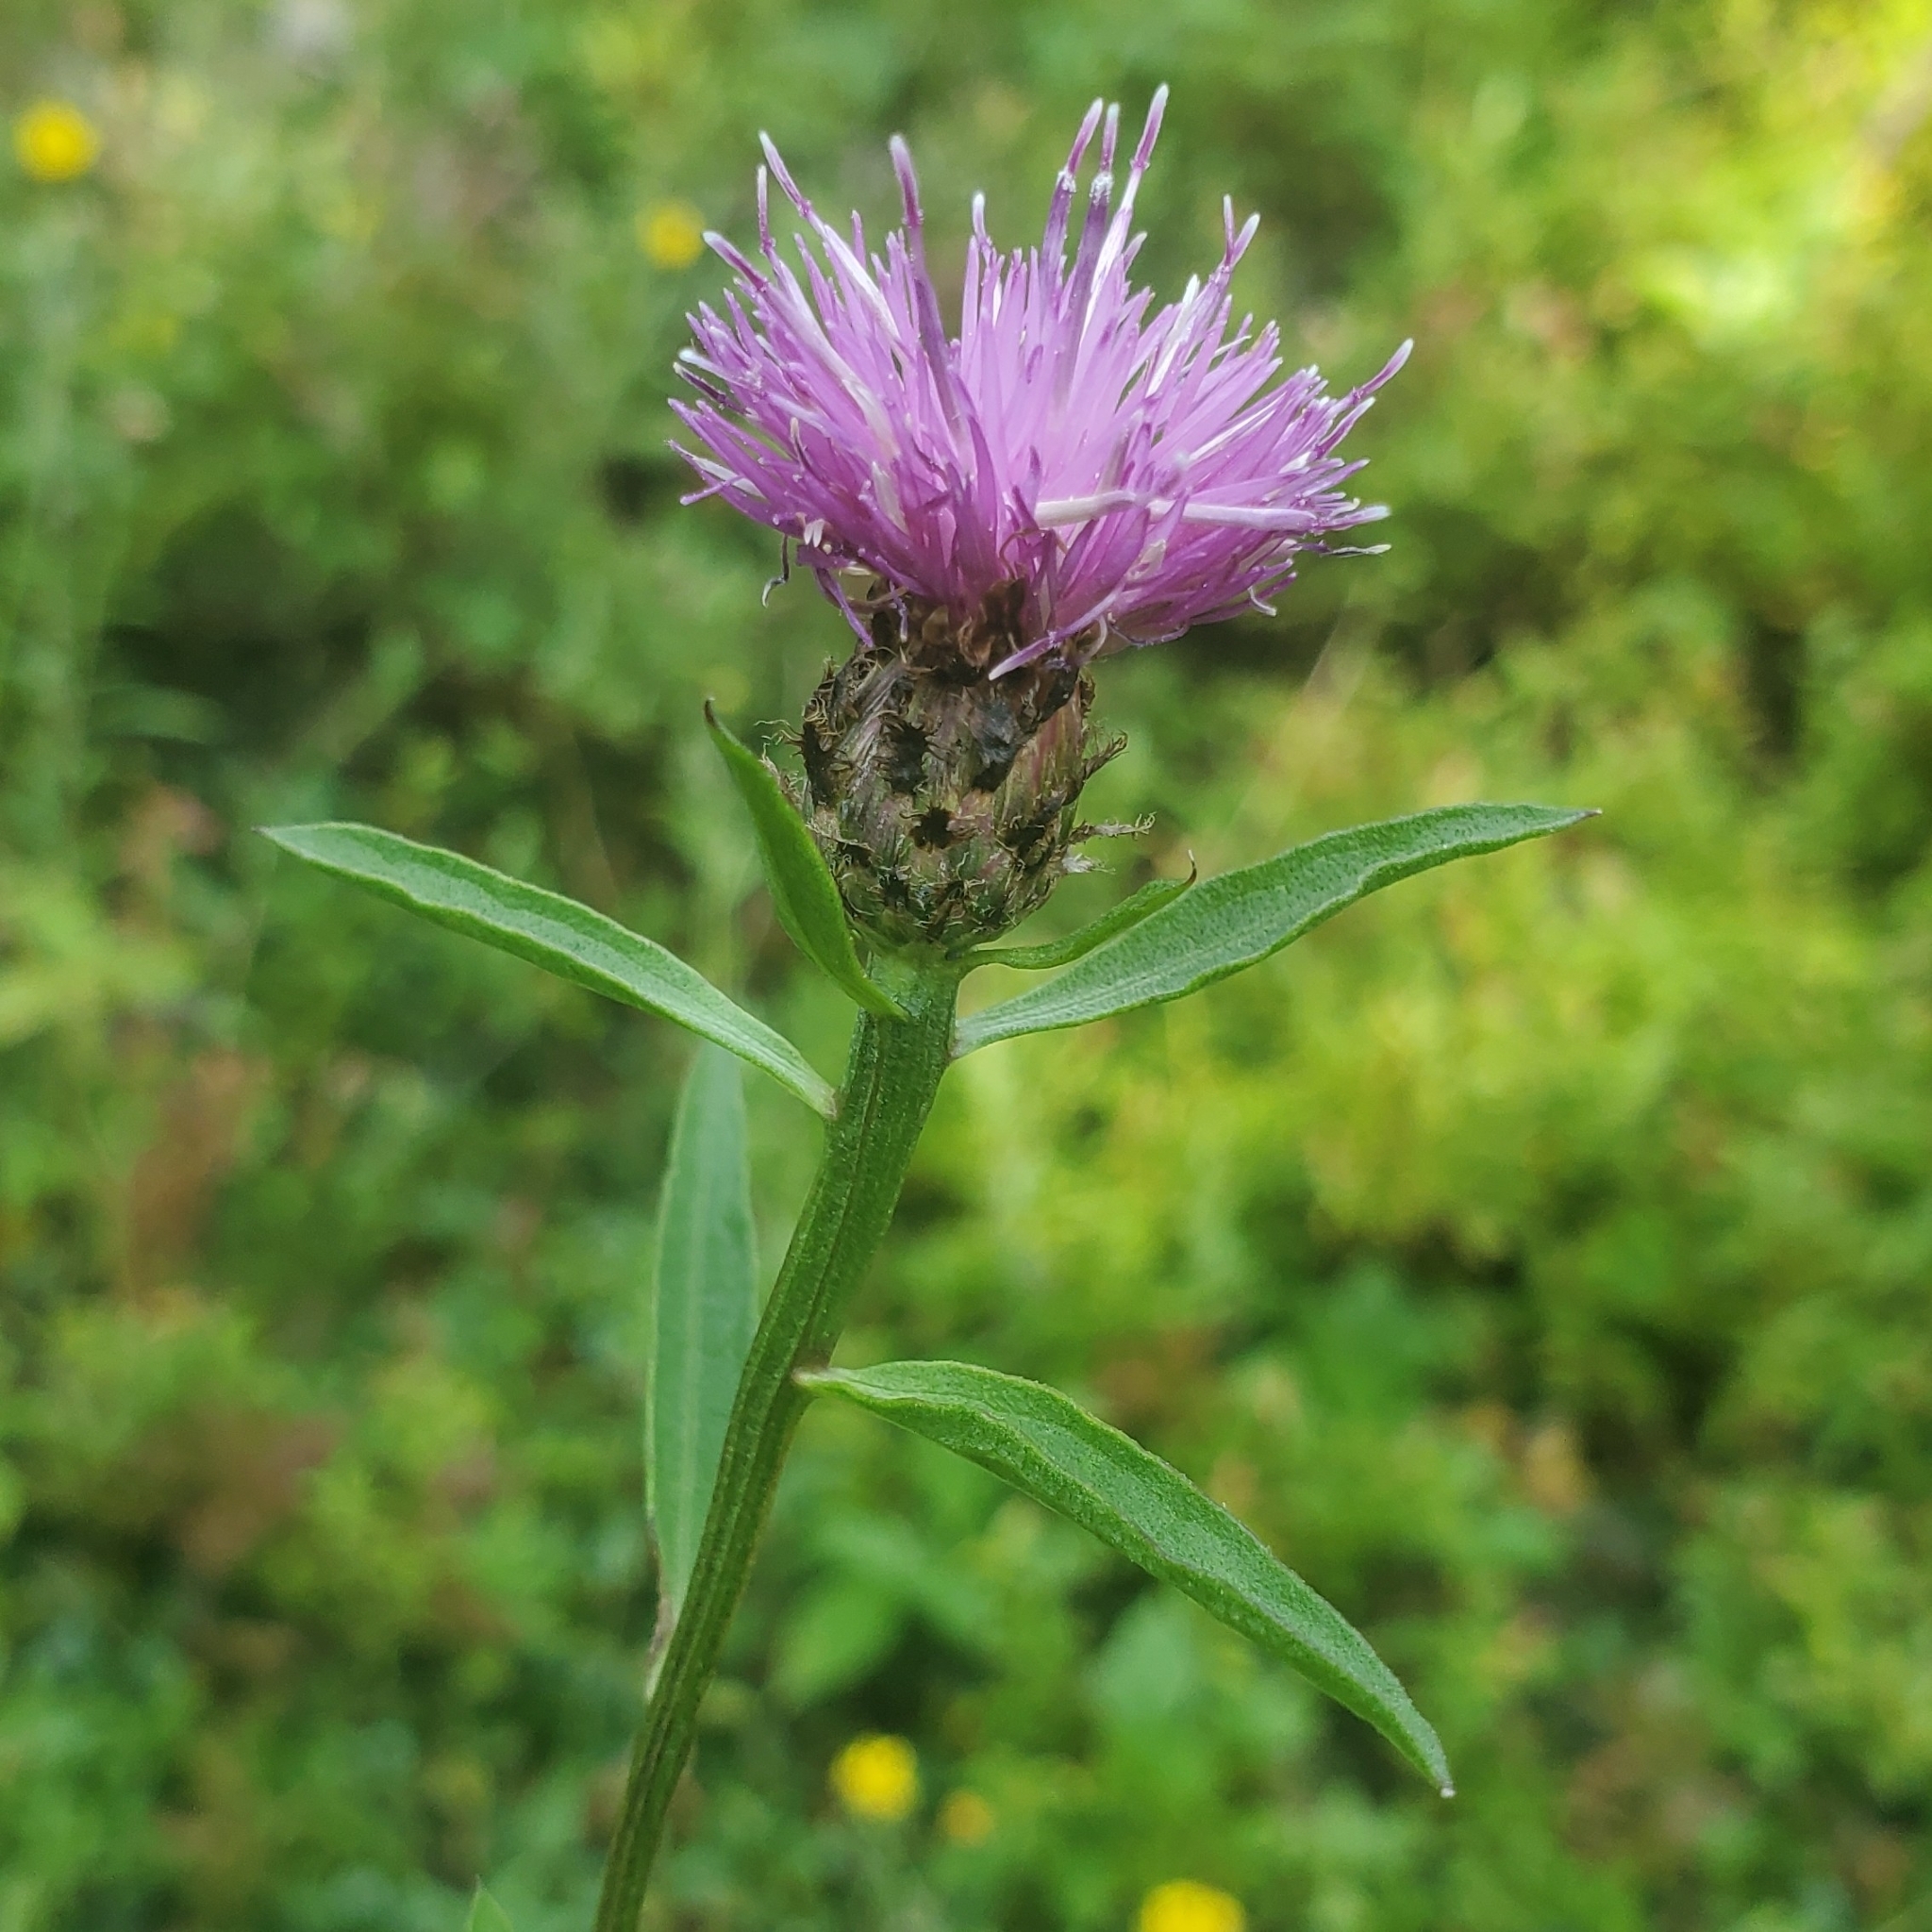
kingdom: Plantae
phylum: Tracheophyta
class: Magnoliopsida
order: Asterales
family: Asteraceae
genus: Centaurea
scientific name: Centaurea nigra
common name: Lesser knapweed
